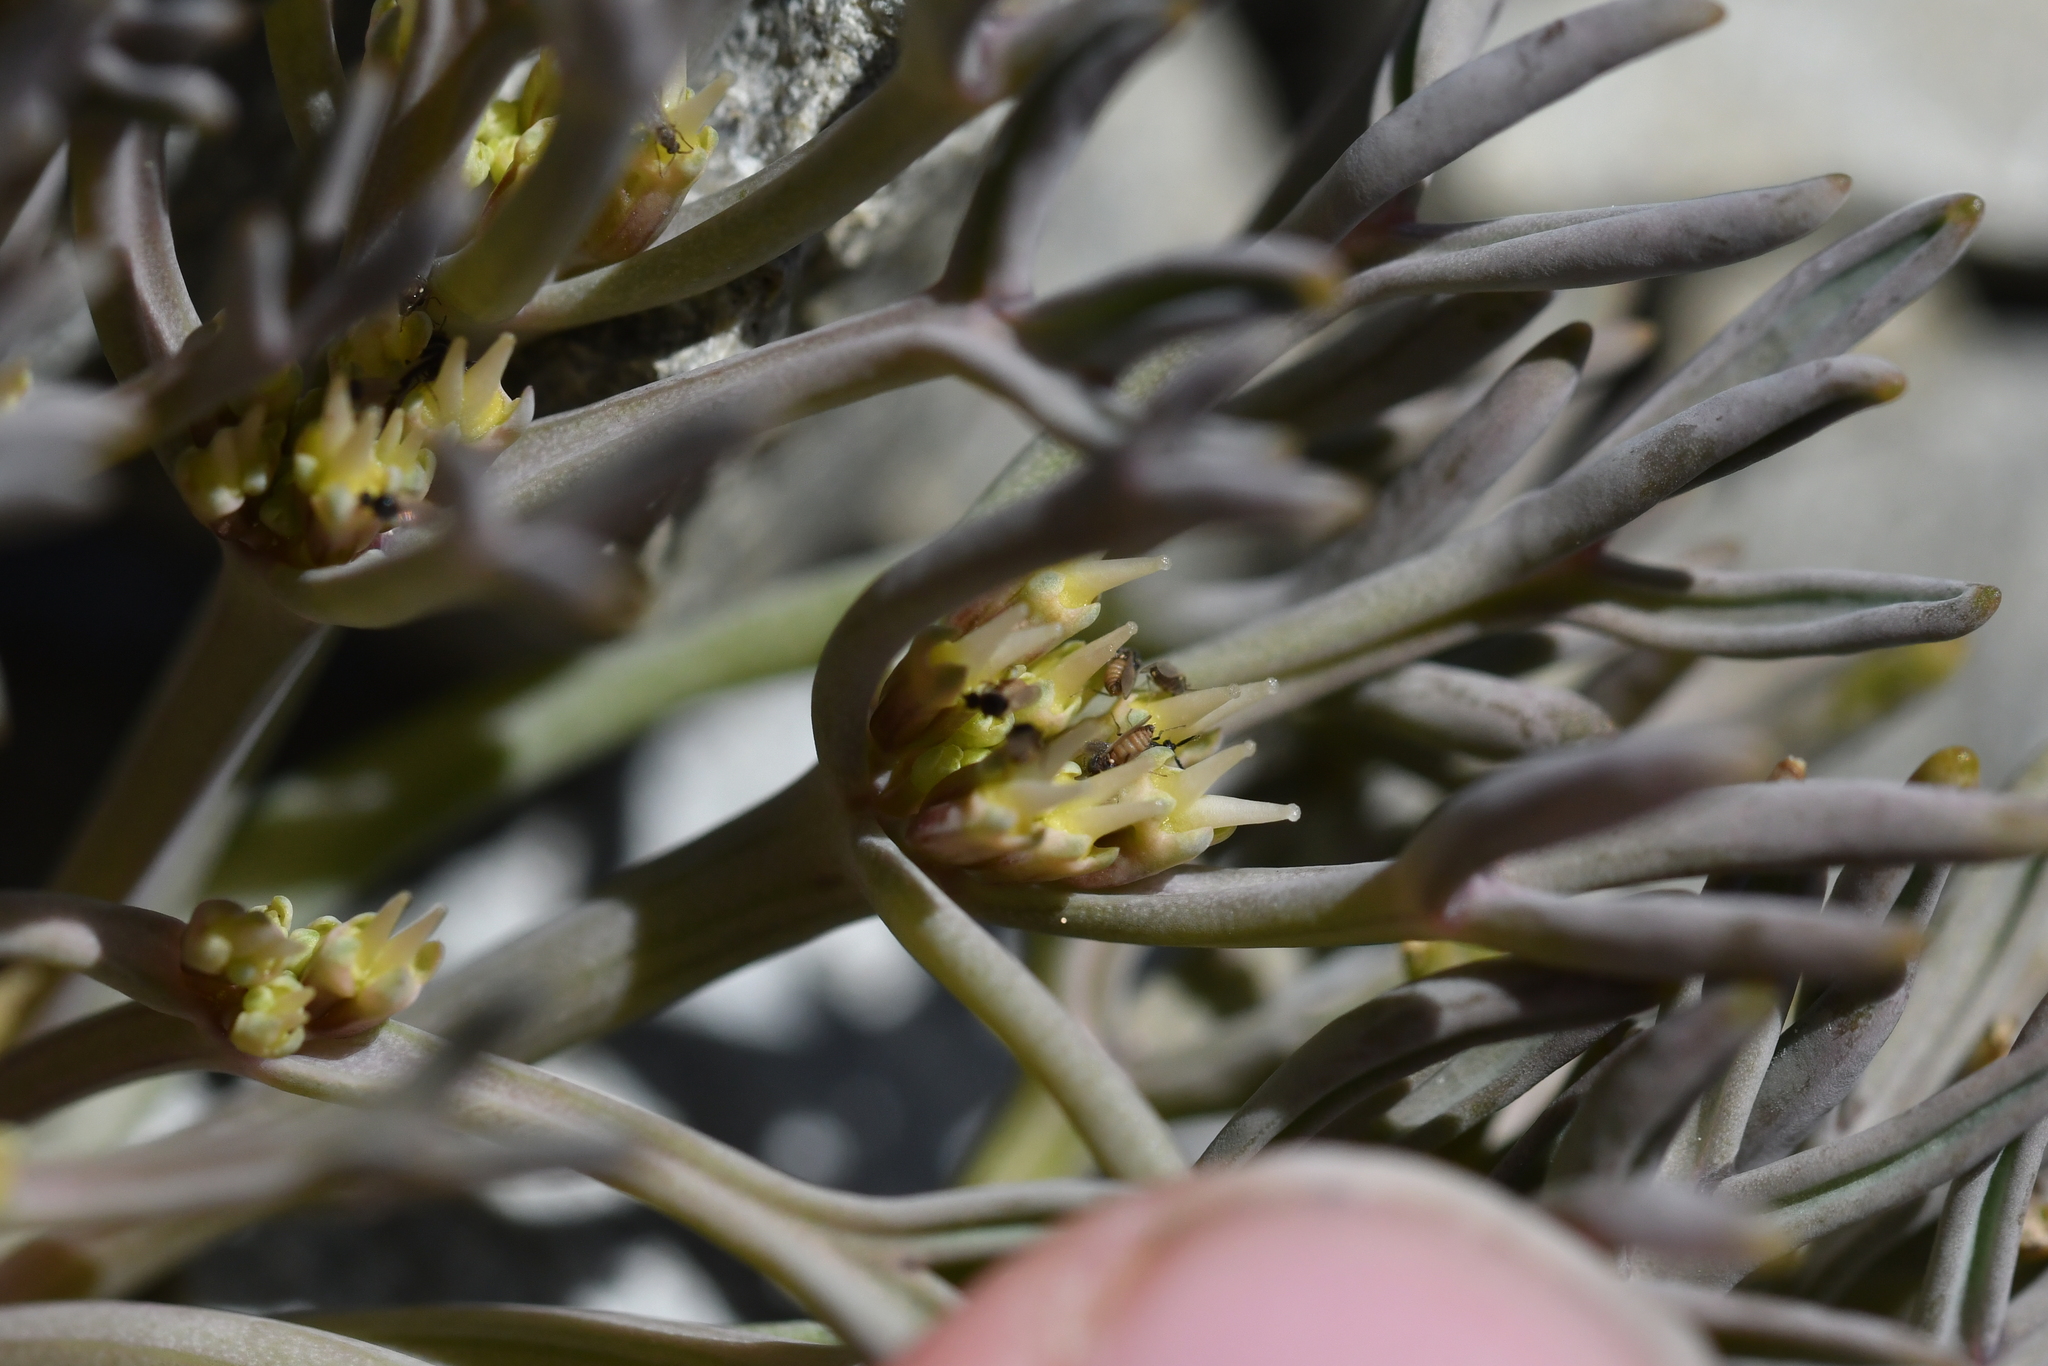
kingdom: Plantae
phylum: Tracheophyta
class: Magnoliopsida
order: Apiales
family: Apiaceae
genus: Lignocarpa
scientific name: Lignocarpa carnosula
